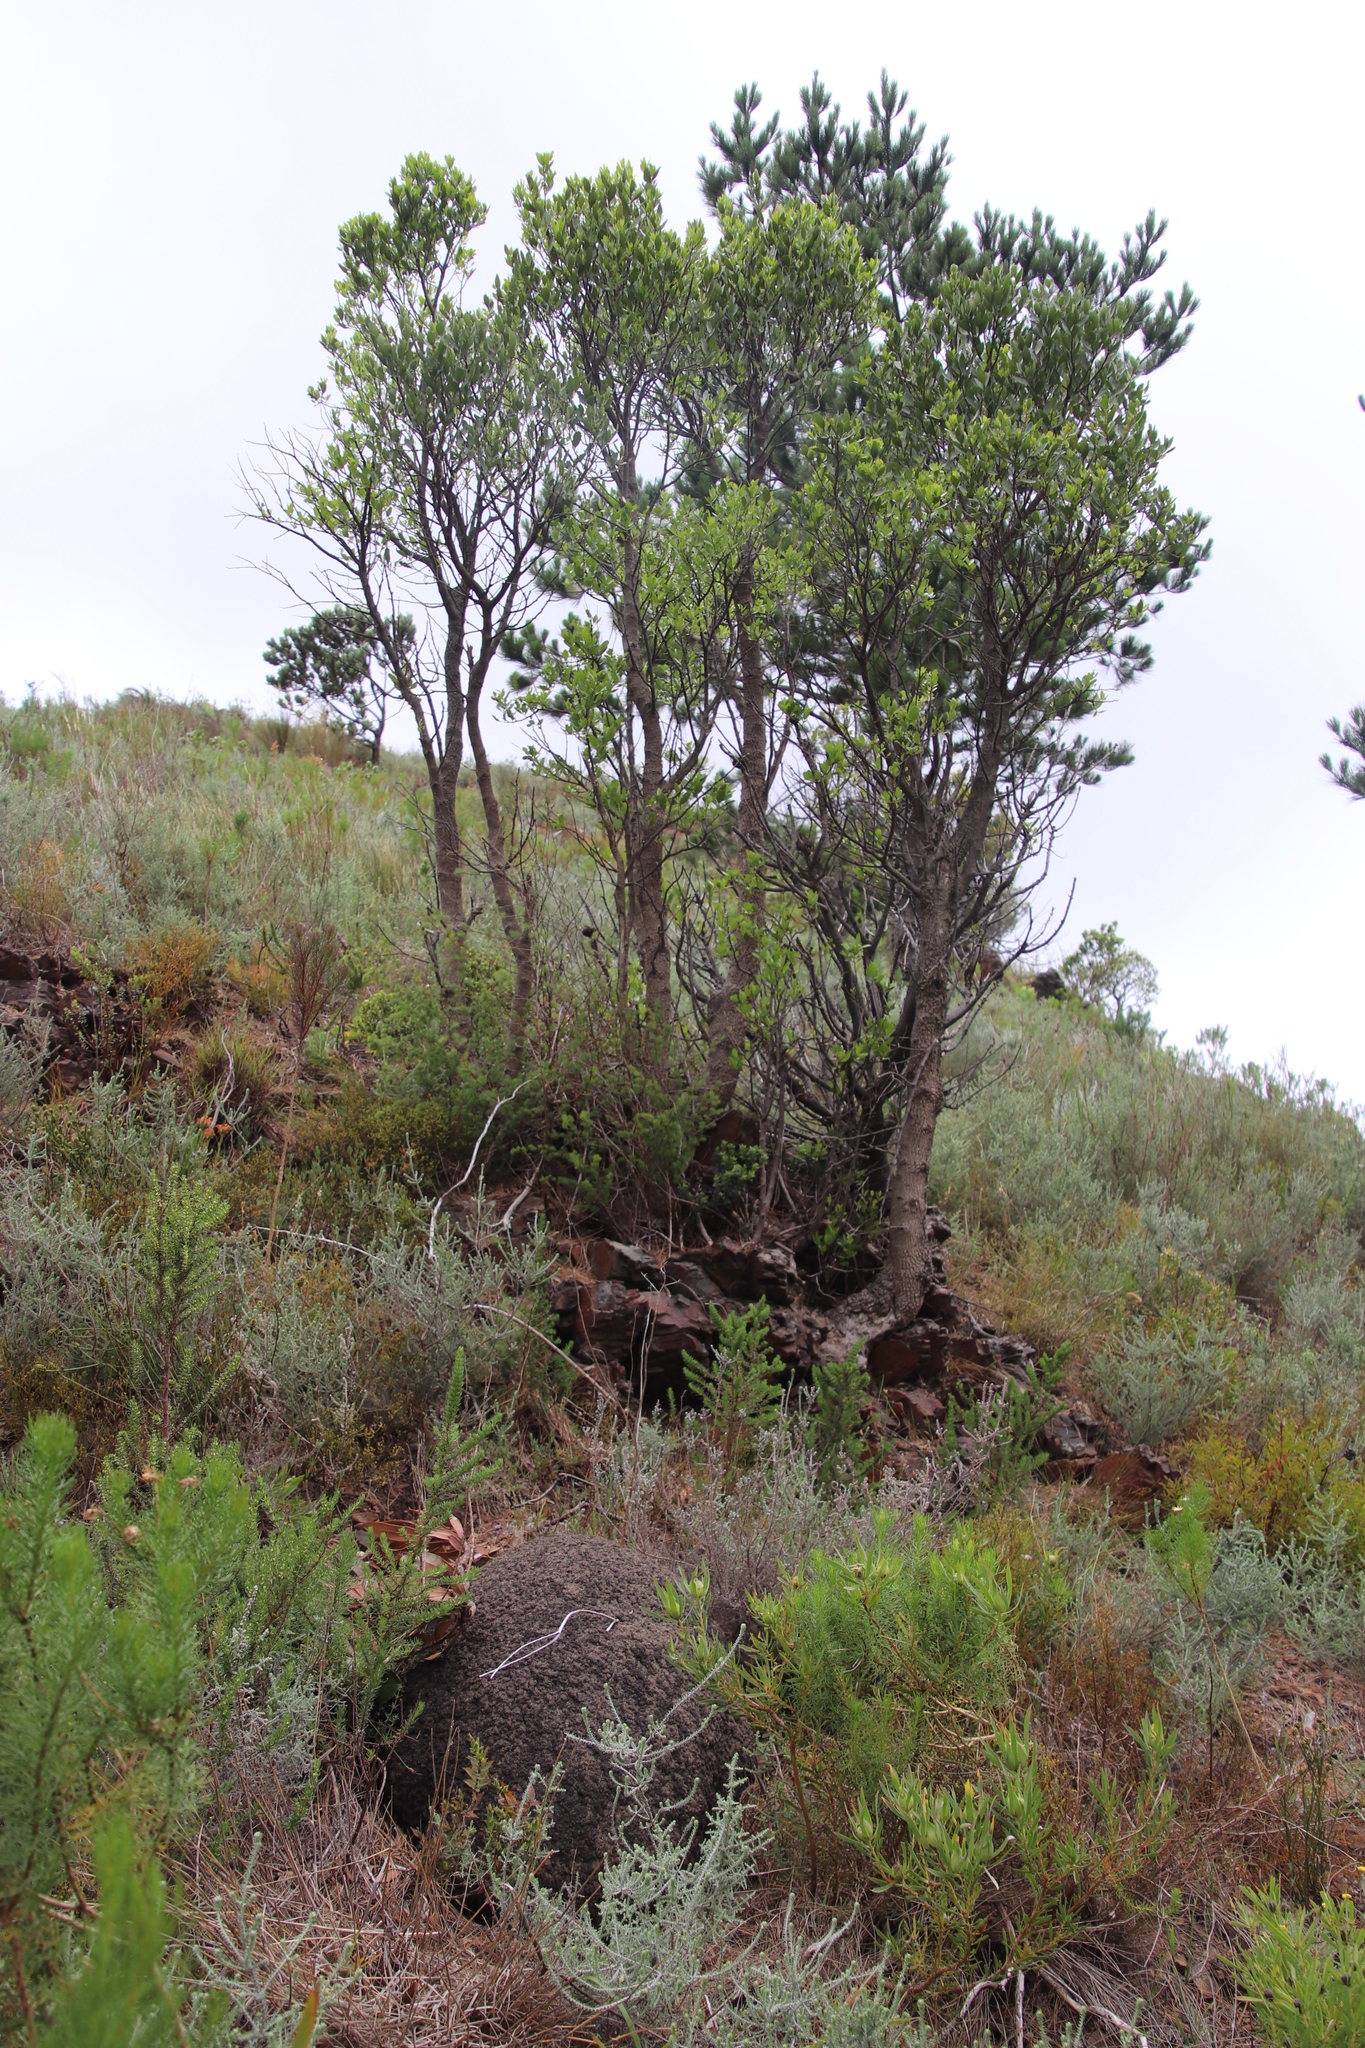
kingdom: Plantae
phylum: Tracheophyta
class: Magnoliopsida
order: Celastrales
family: Celastraceae
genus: Gymnosporia
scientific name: Gymnosporia laurina
